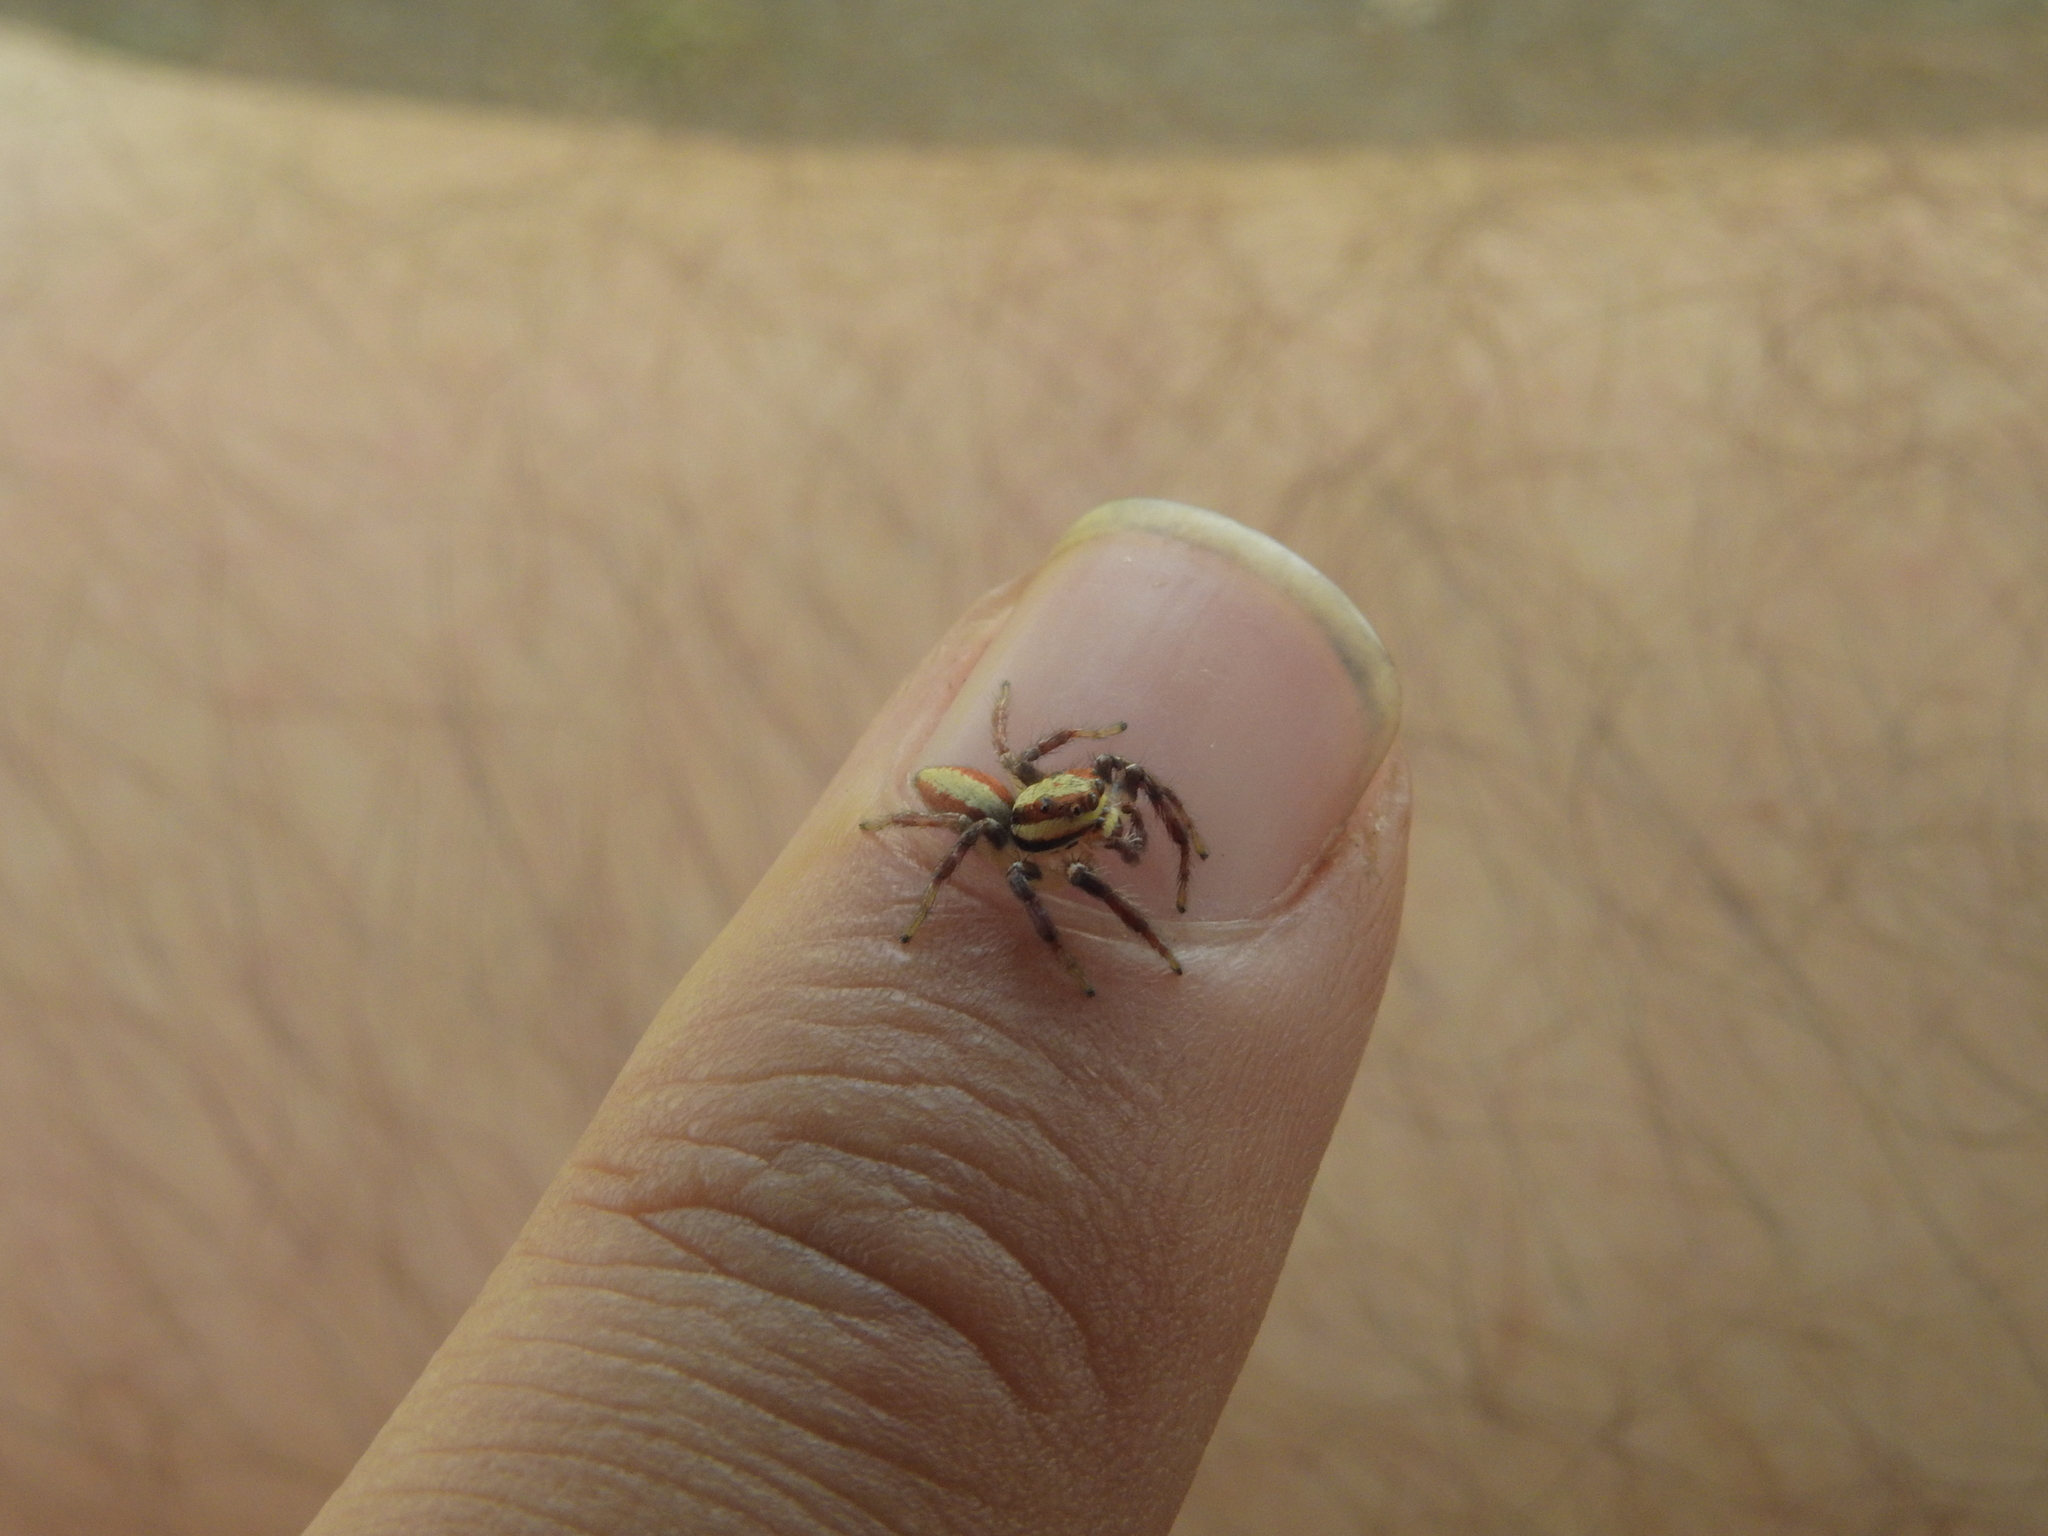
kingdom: Animalia
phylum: Arthropoda
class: Arachnida
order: Araneae
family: Salticidae
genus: Cytaea
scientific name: Cytaea alburna
